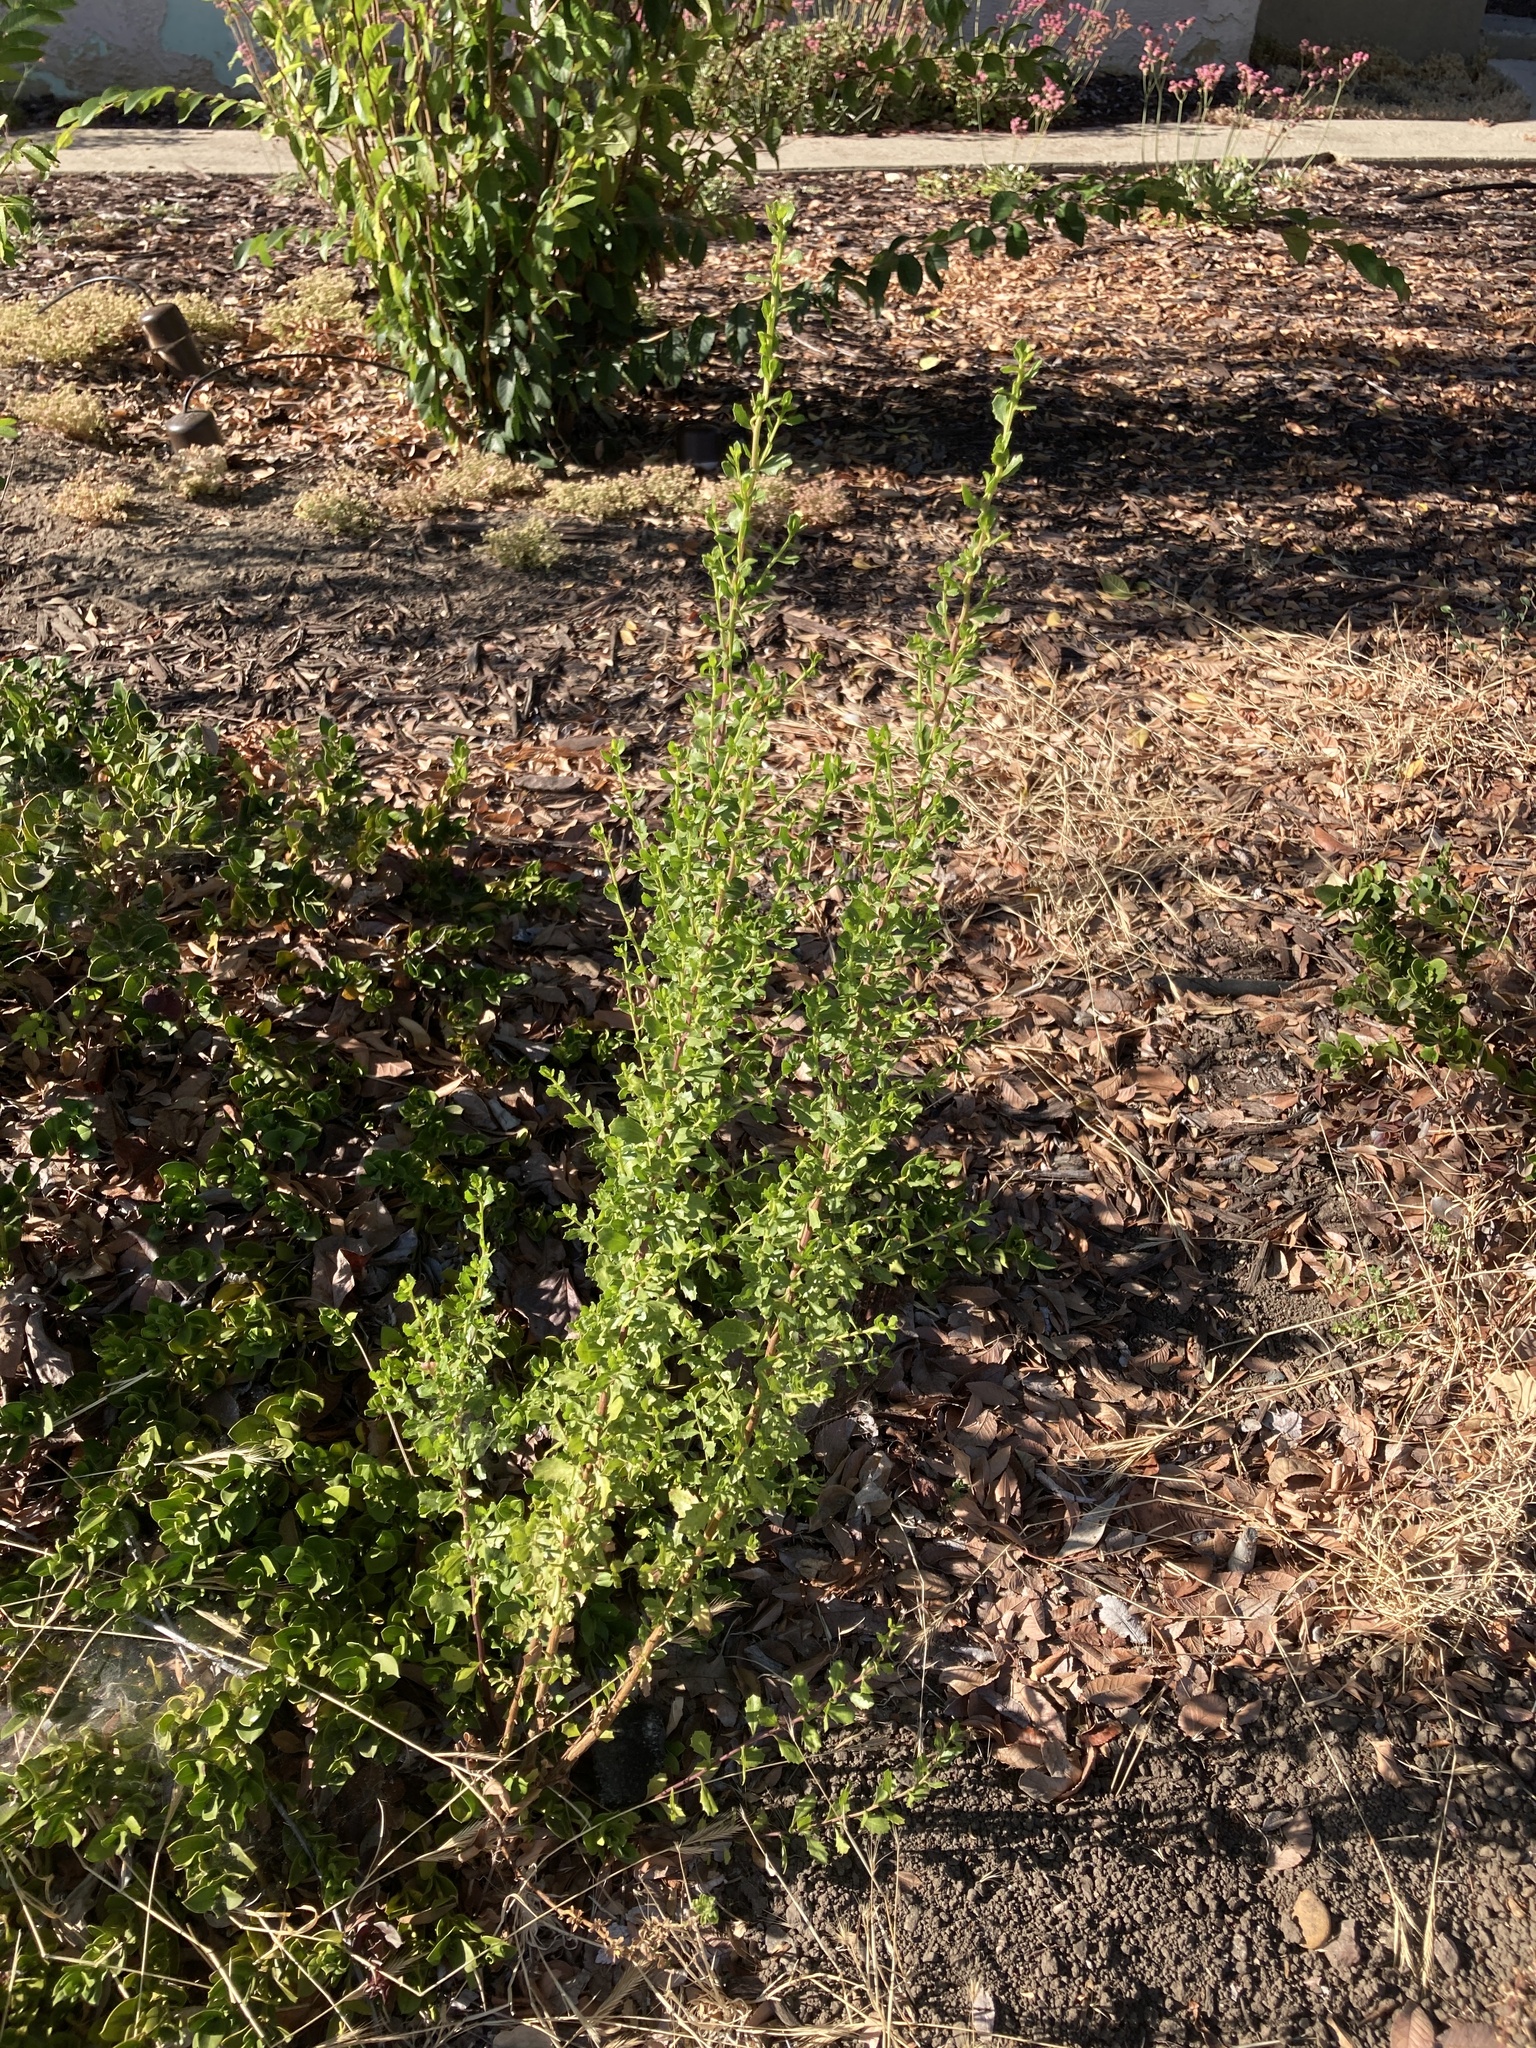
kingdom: Plantae
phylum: Tracheophyta
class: Magnoliopsida
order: Asterales
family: Asteraceae
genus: Baccharis
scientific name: Baccharis pilularis
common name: Coyotebrush
